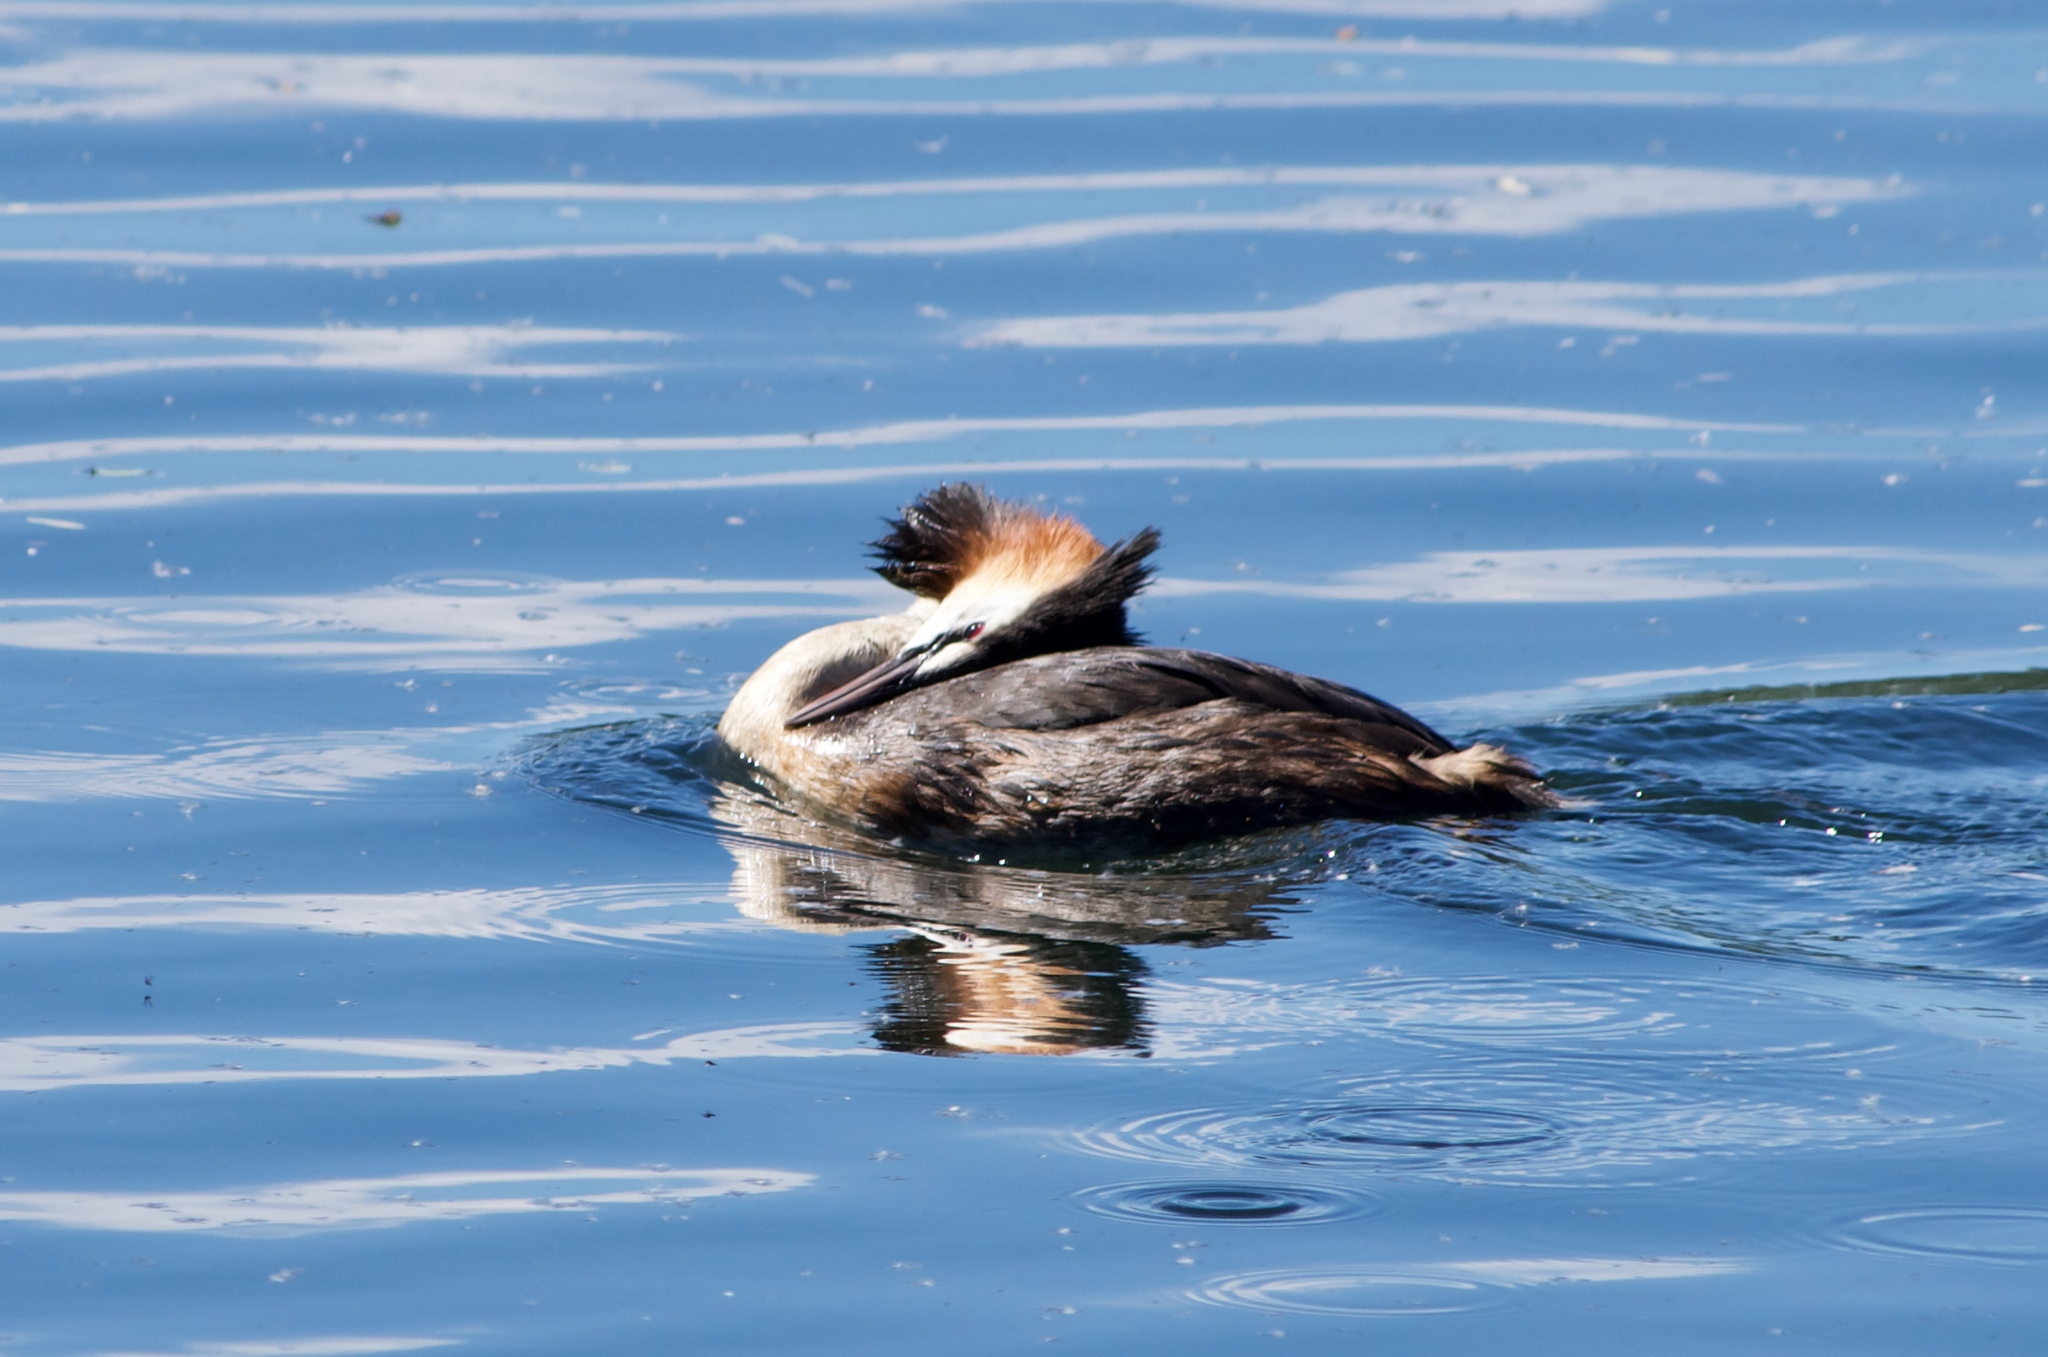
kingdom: Animalia
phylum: Chordata
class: Aves
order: Podicipediformes
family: Podicipedidae
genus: Podiceps
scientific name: Podiceps cristatus
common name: Great crested grebe
